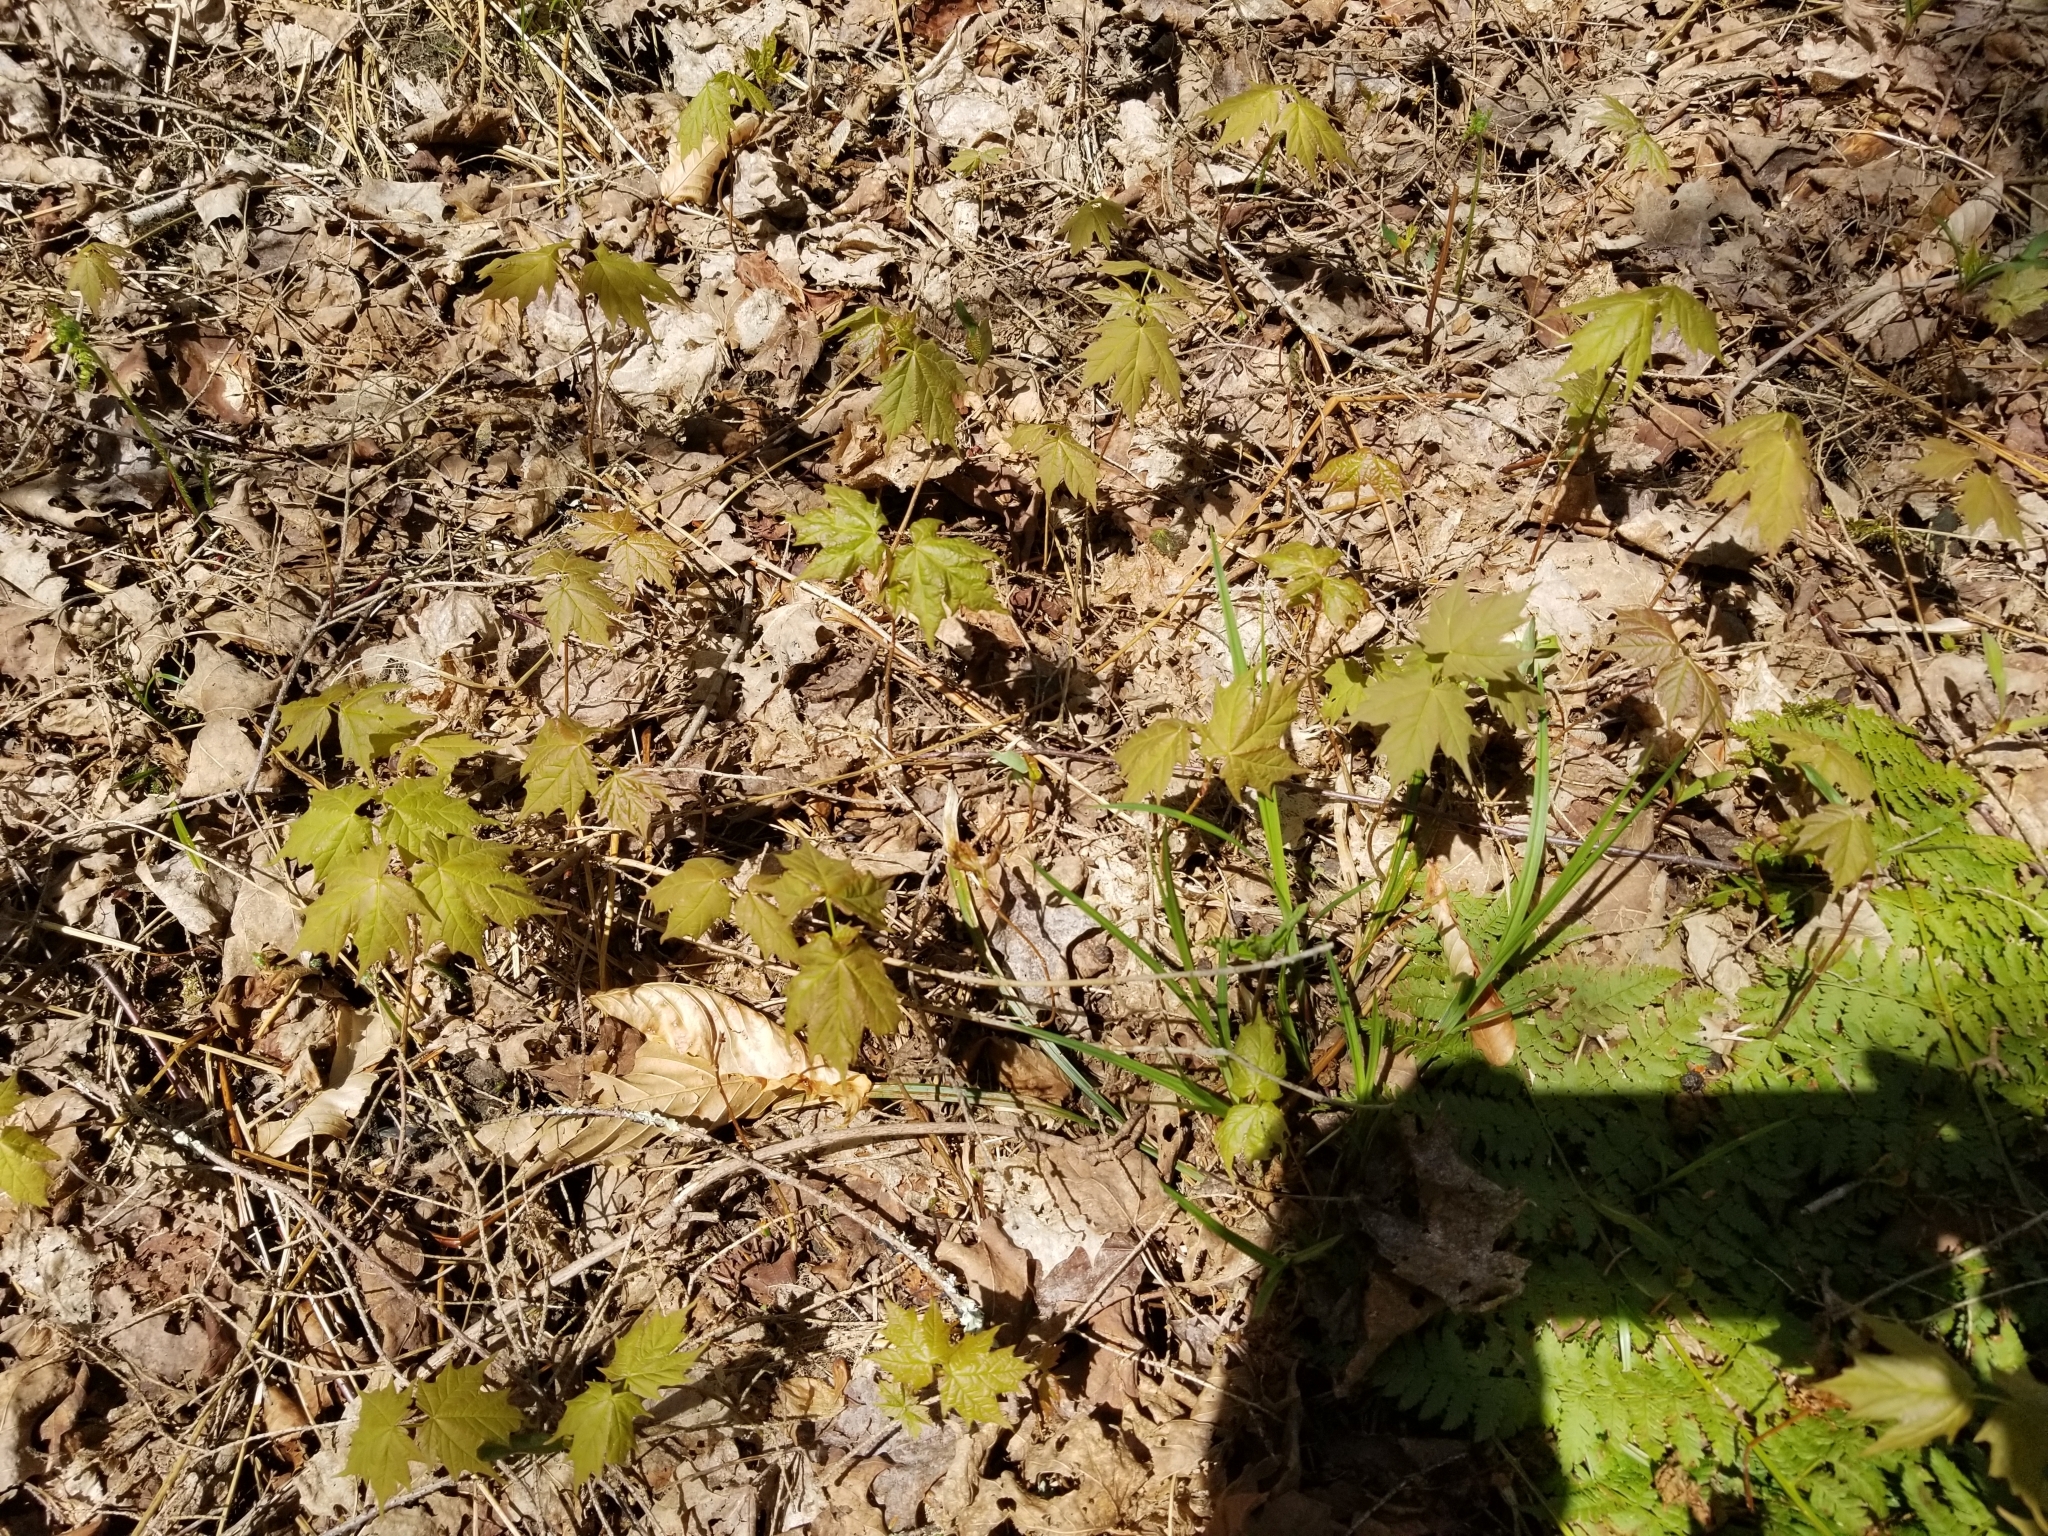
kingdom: Plantae
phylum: Tracheophyta
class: Magnoliopsida
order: Sapindales
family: Sapindaceae
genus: Acer
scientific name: Acer saccharum
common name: Sugar maple
